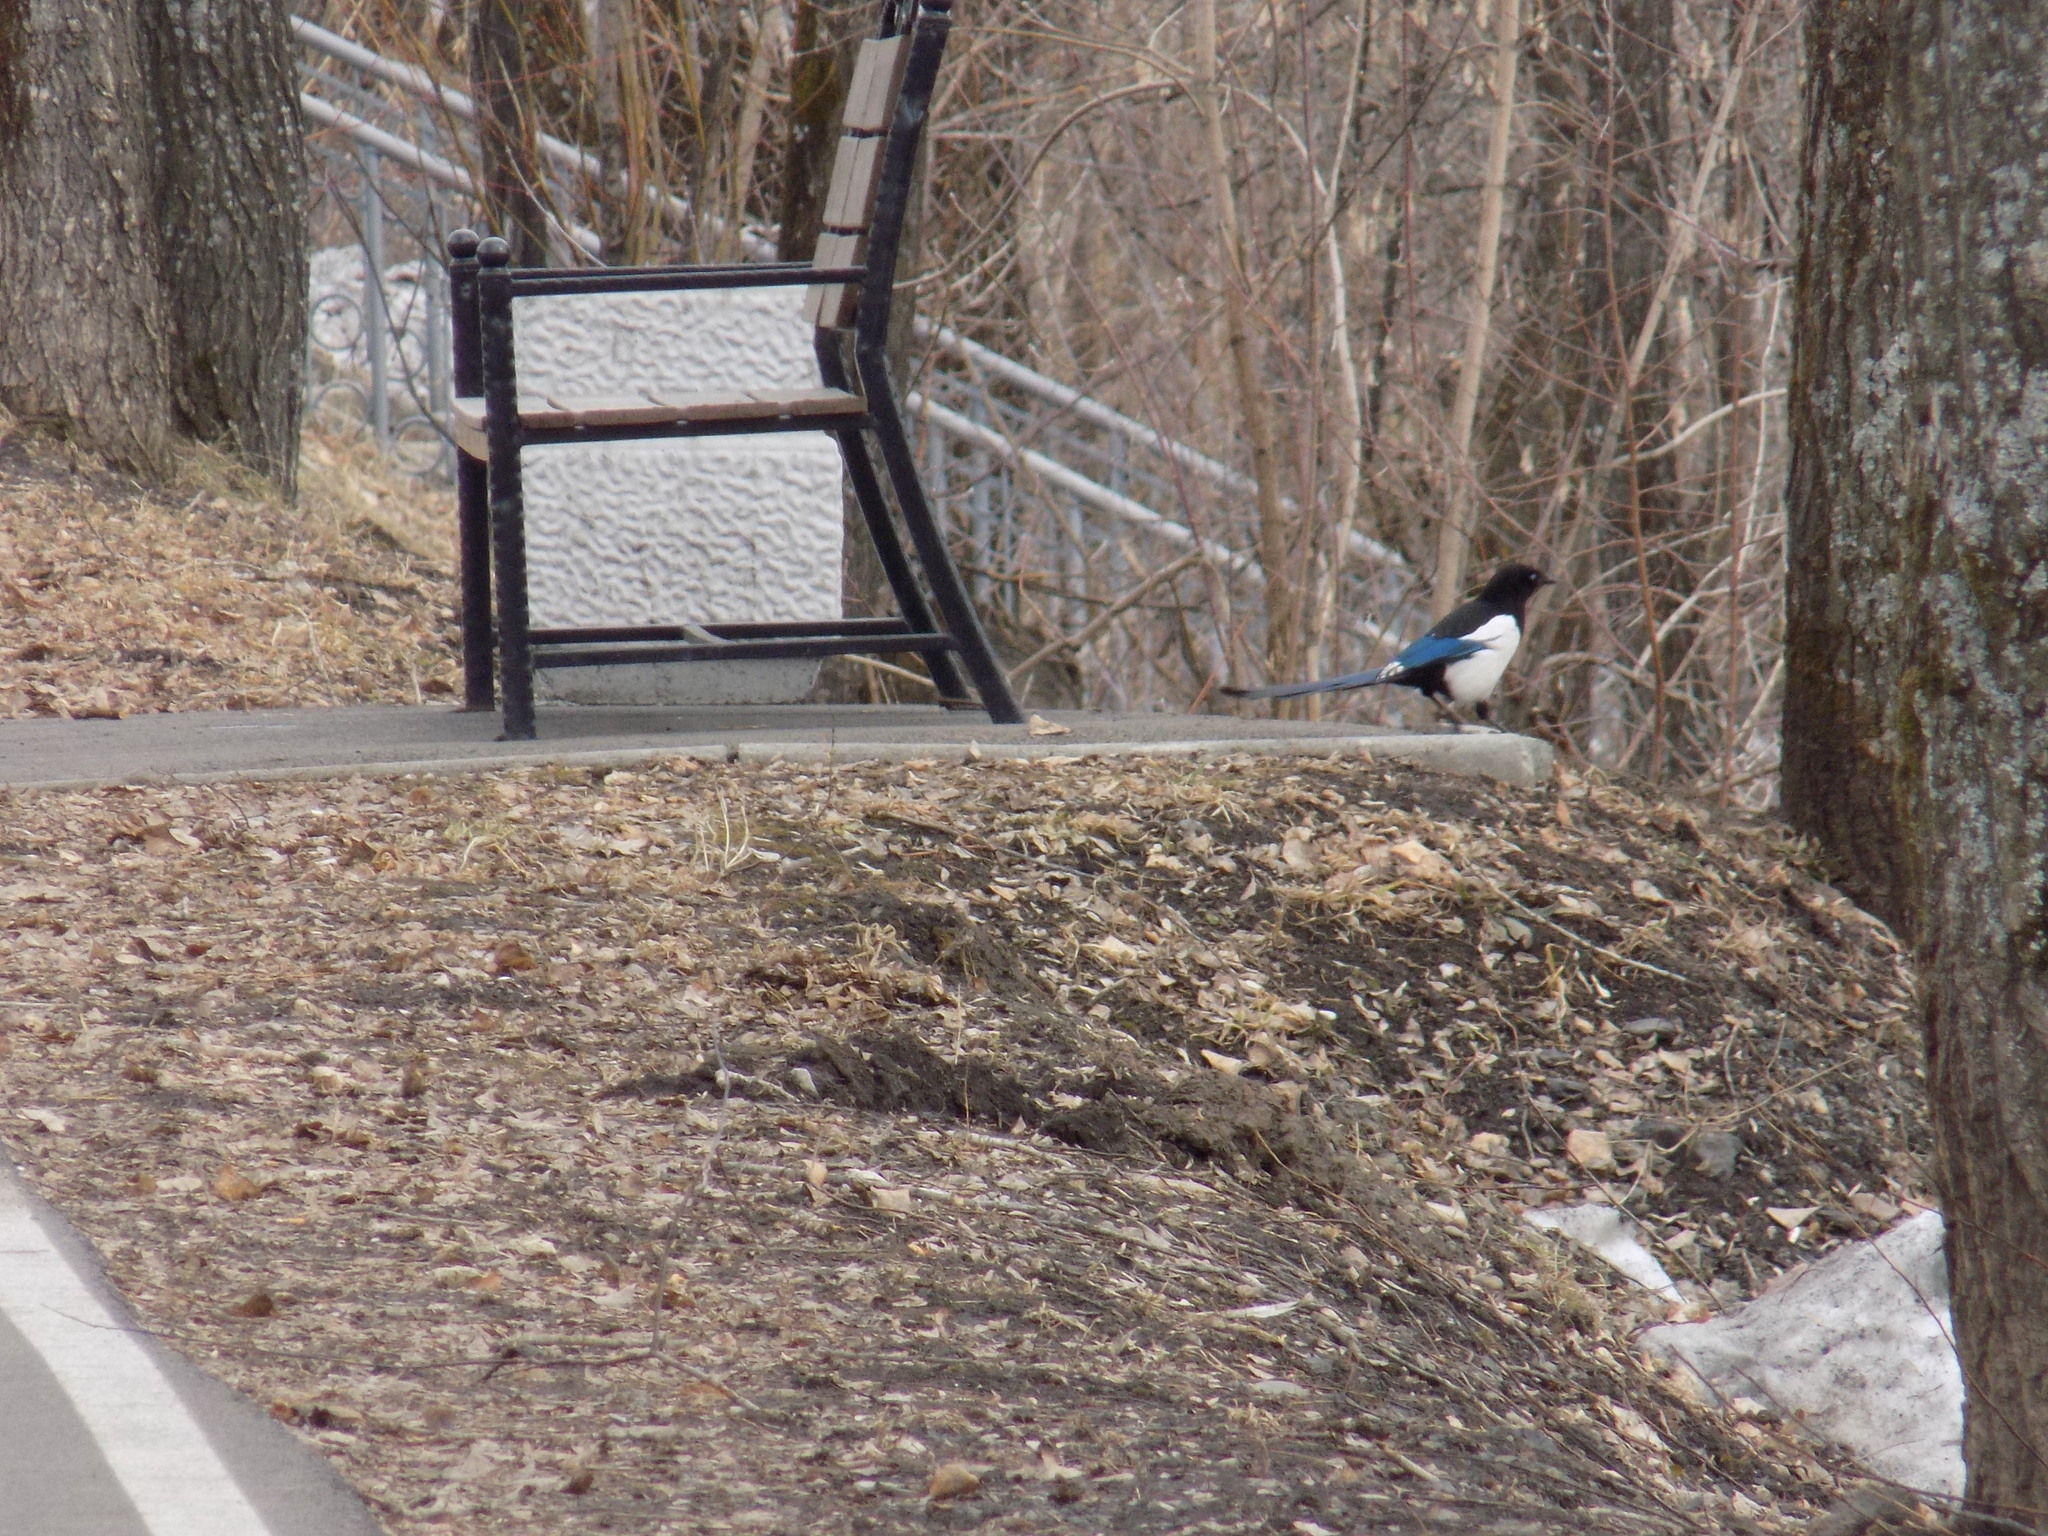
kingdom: Animalia
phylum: Chordata
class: Aves
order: Passeriformes
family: Corvidae
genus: Pica
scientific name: Pica pica
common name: Eurasian magpie
